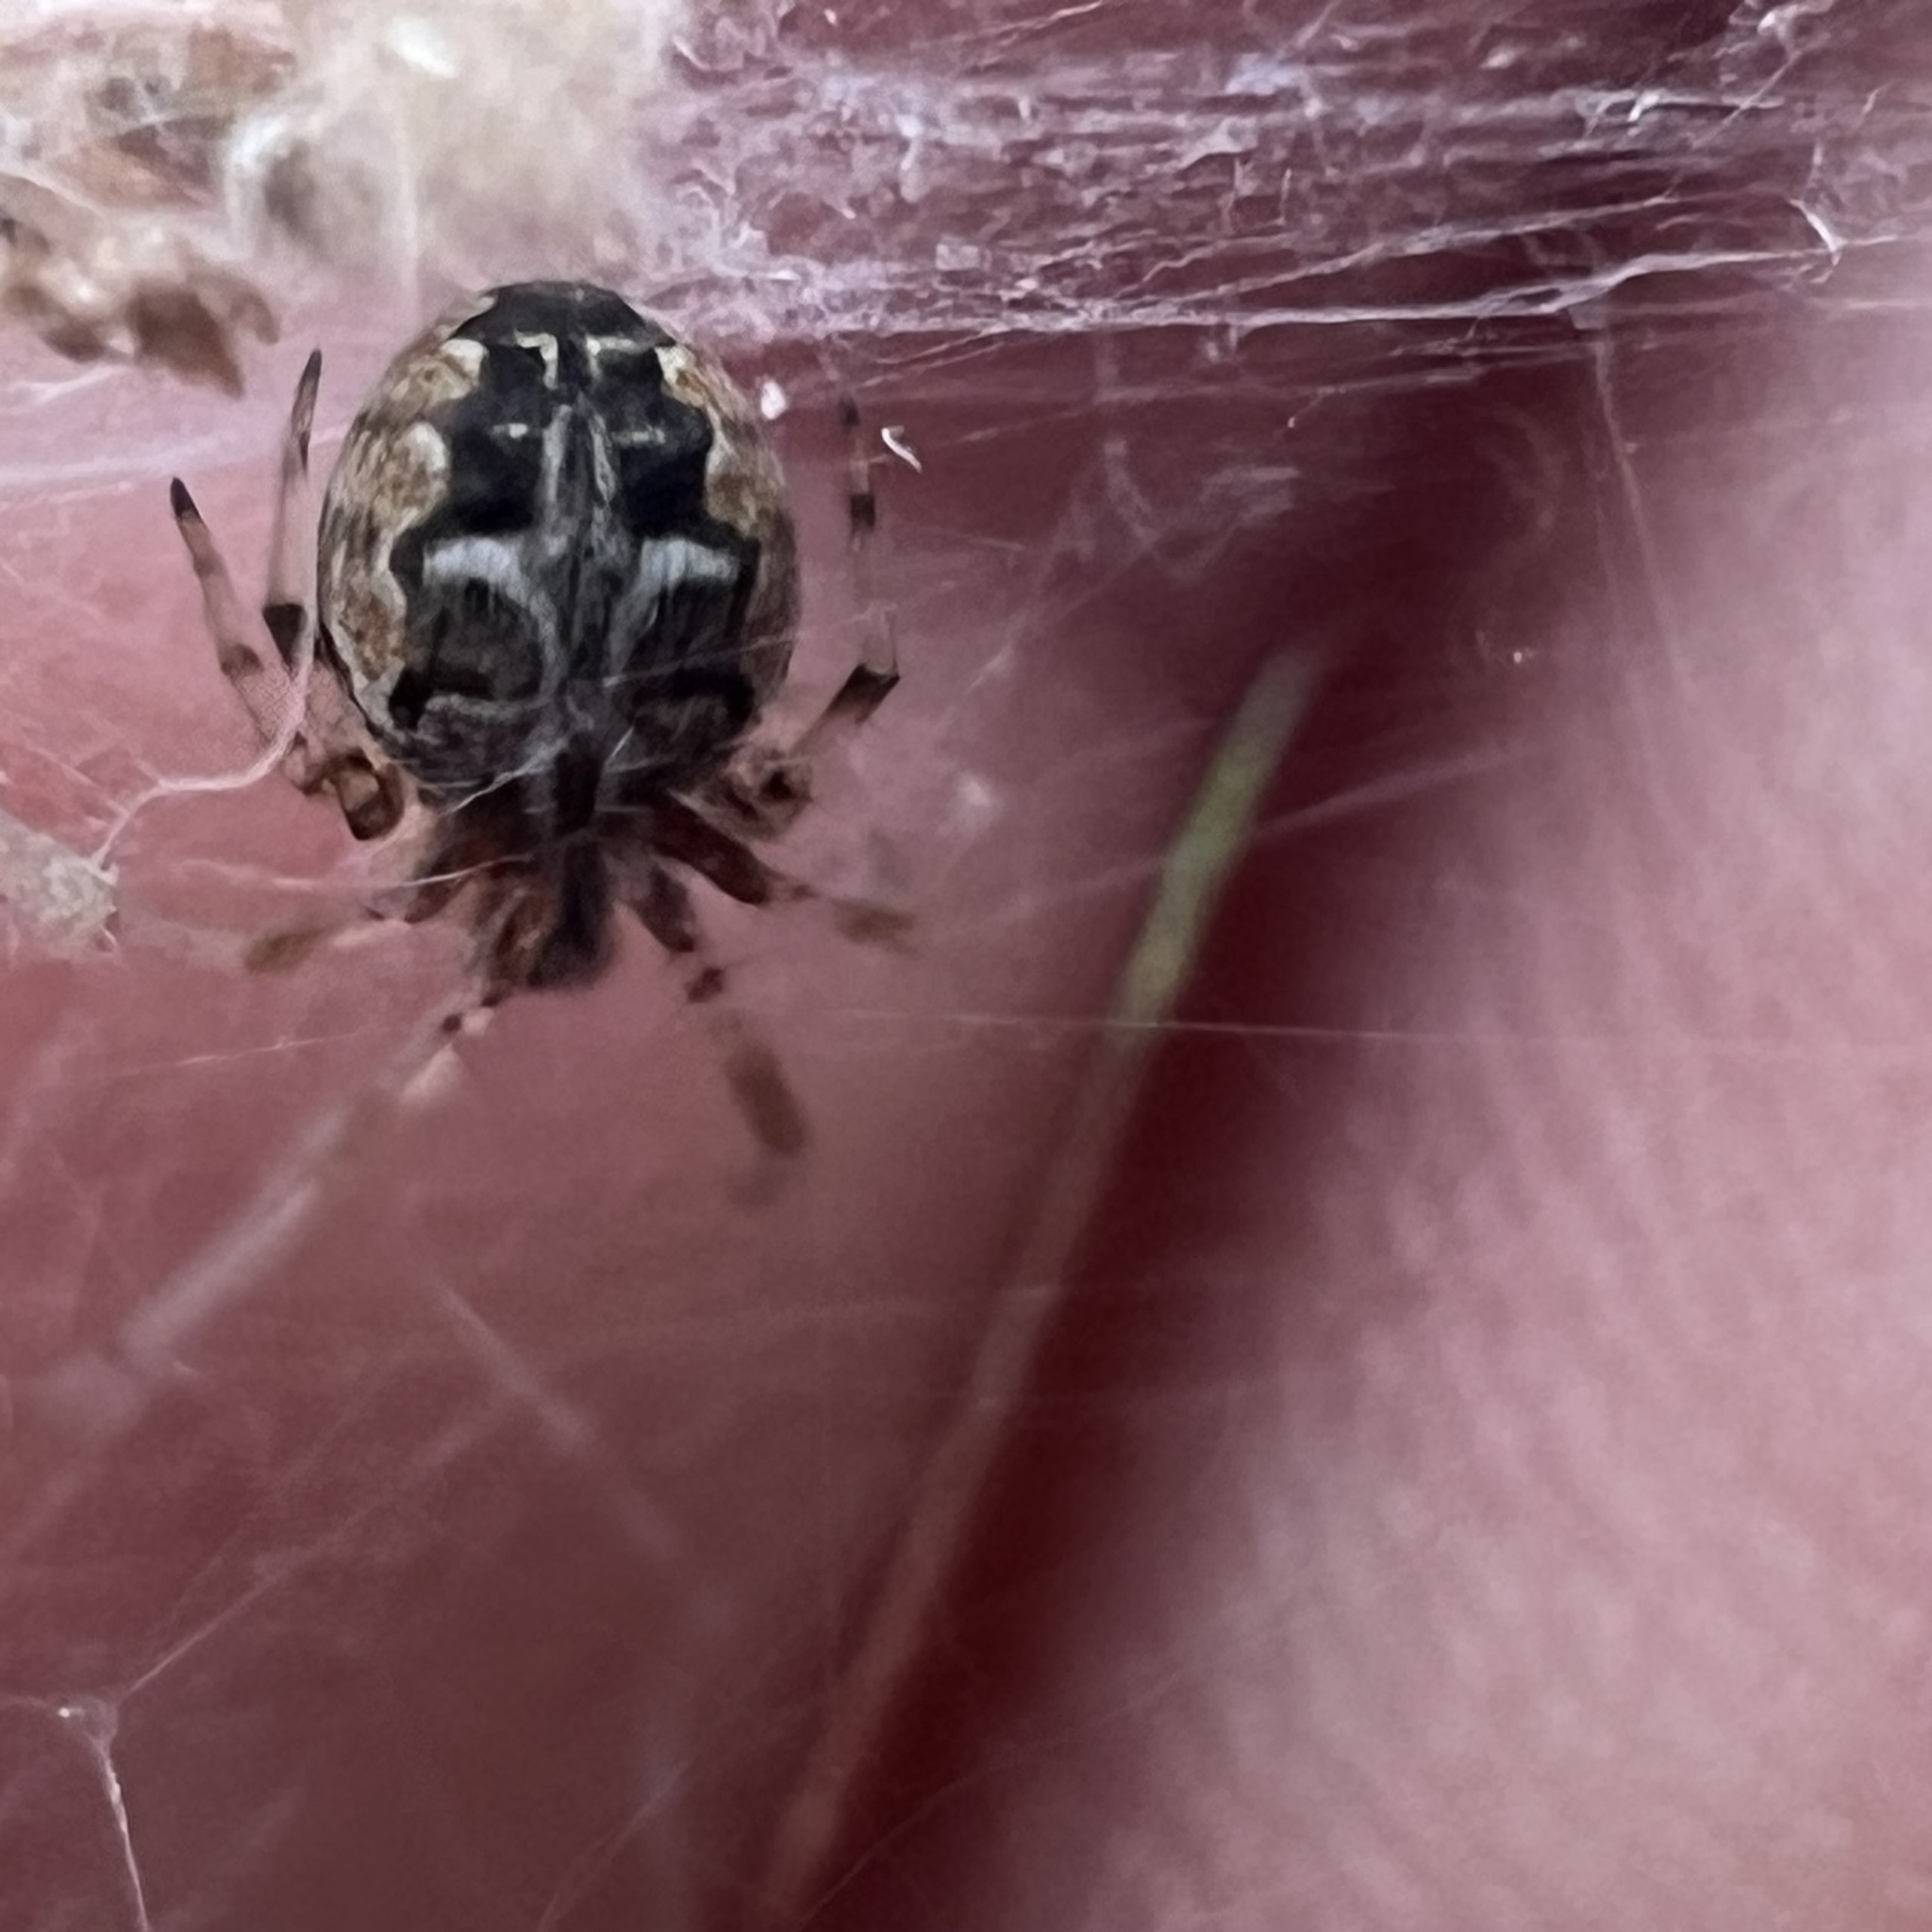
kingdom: Animalia
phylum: Arthropoda
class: Arachnida
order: Araneae
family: Araneidae
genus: Metepeira
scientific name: Metepeira labyrinthea
